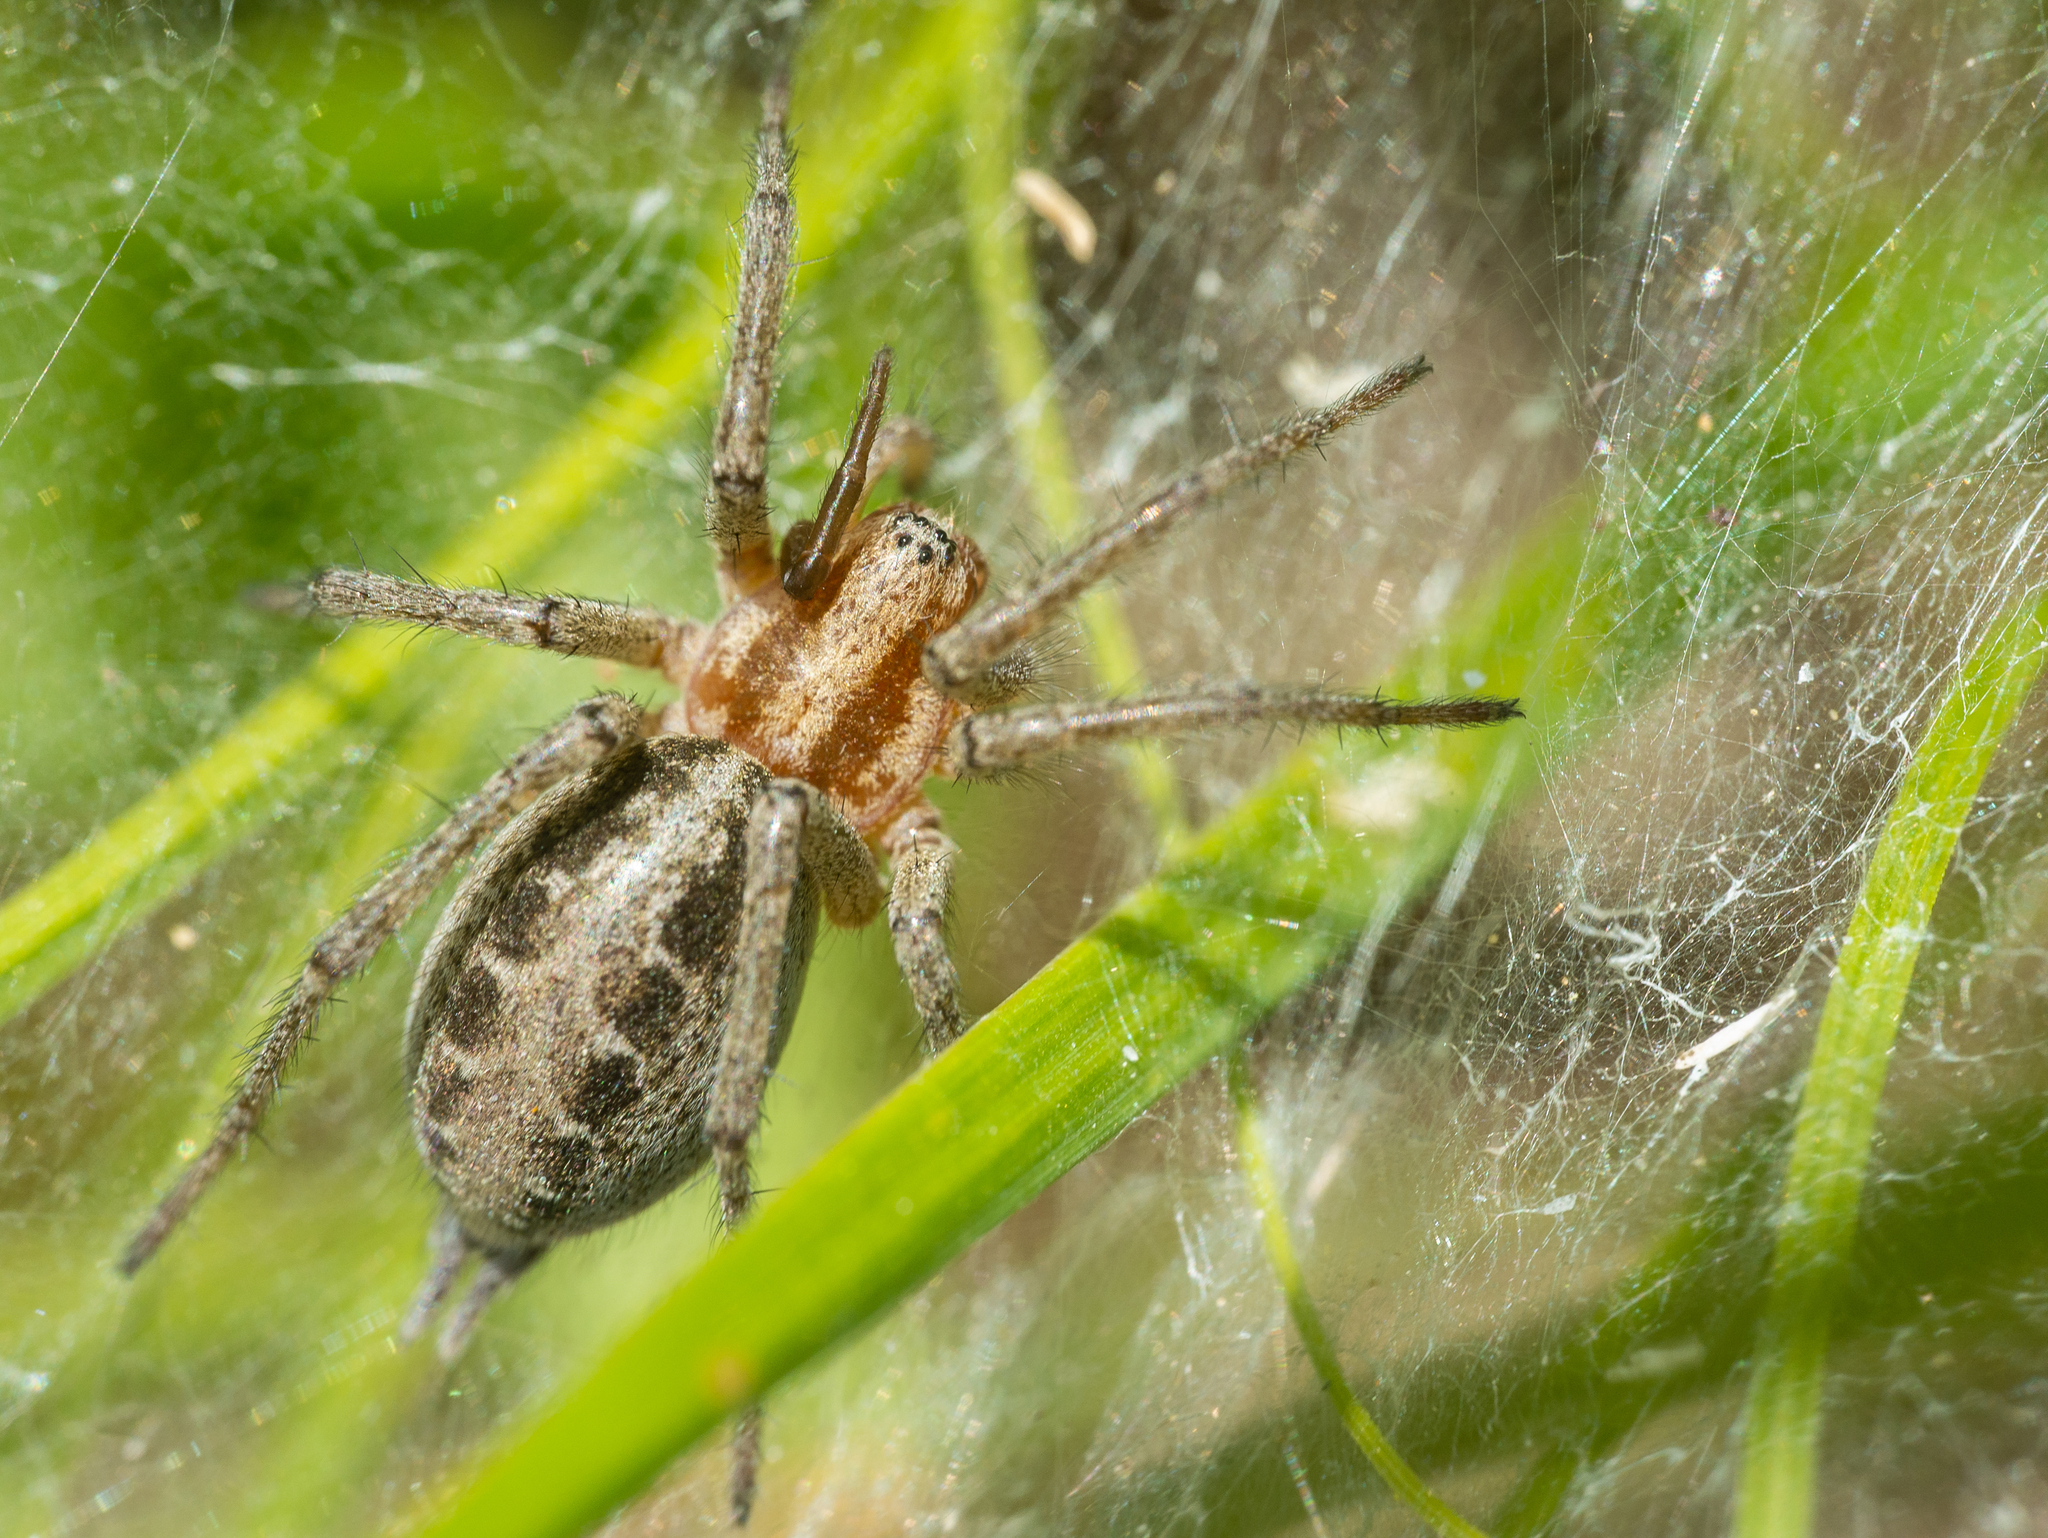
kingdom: Animalia
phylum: Arthropoda
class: Arachnida
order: Araneae
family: Agelenidae
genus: Agelena
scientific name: Agelena labyrinthica
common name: Labyrinth spider
